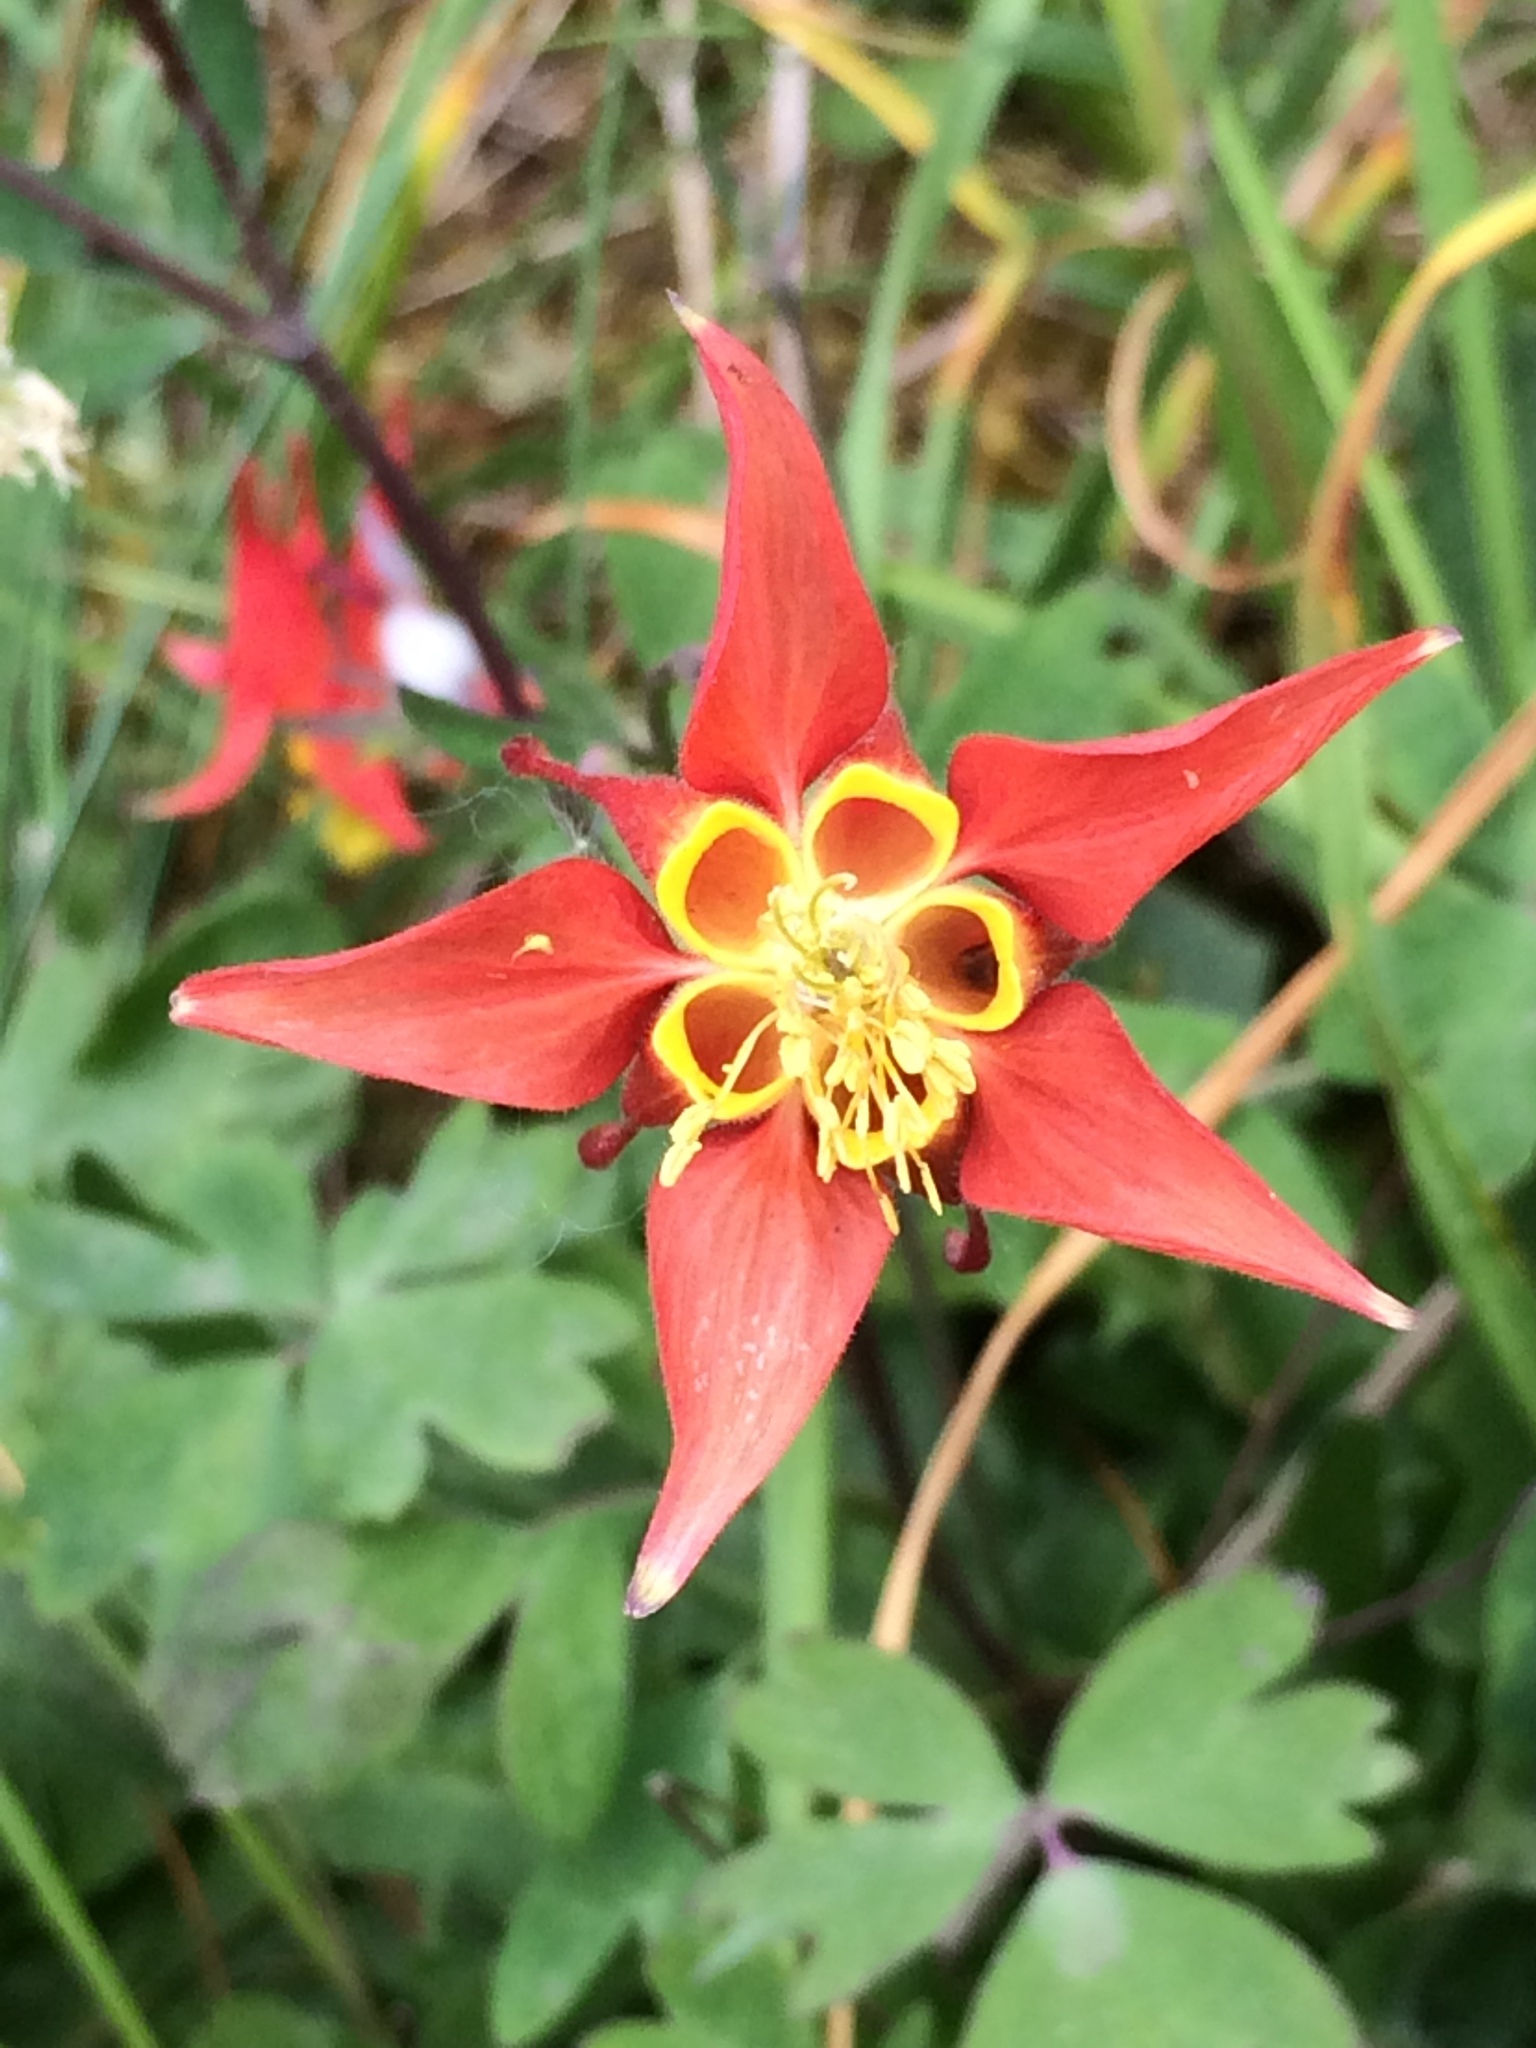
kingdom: Plantae
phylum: Tracheophyta
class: Magnoliopsida
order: Ranunculales
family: Ranunculaceae
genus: Aquilegia
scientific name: Aquilegia formosa
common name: Sitka columbine
